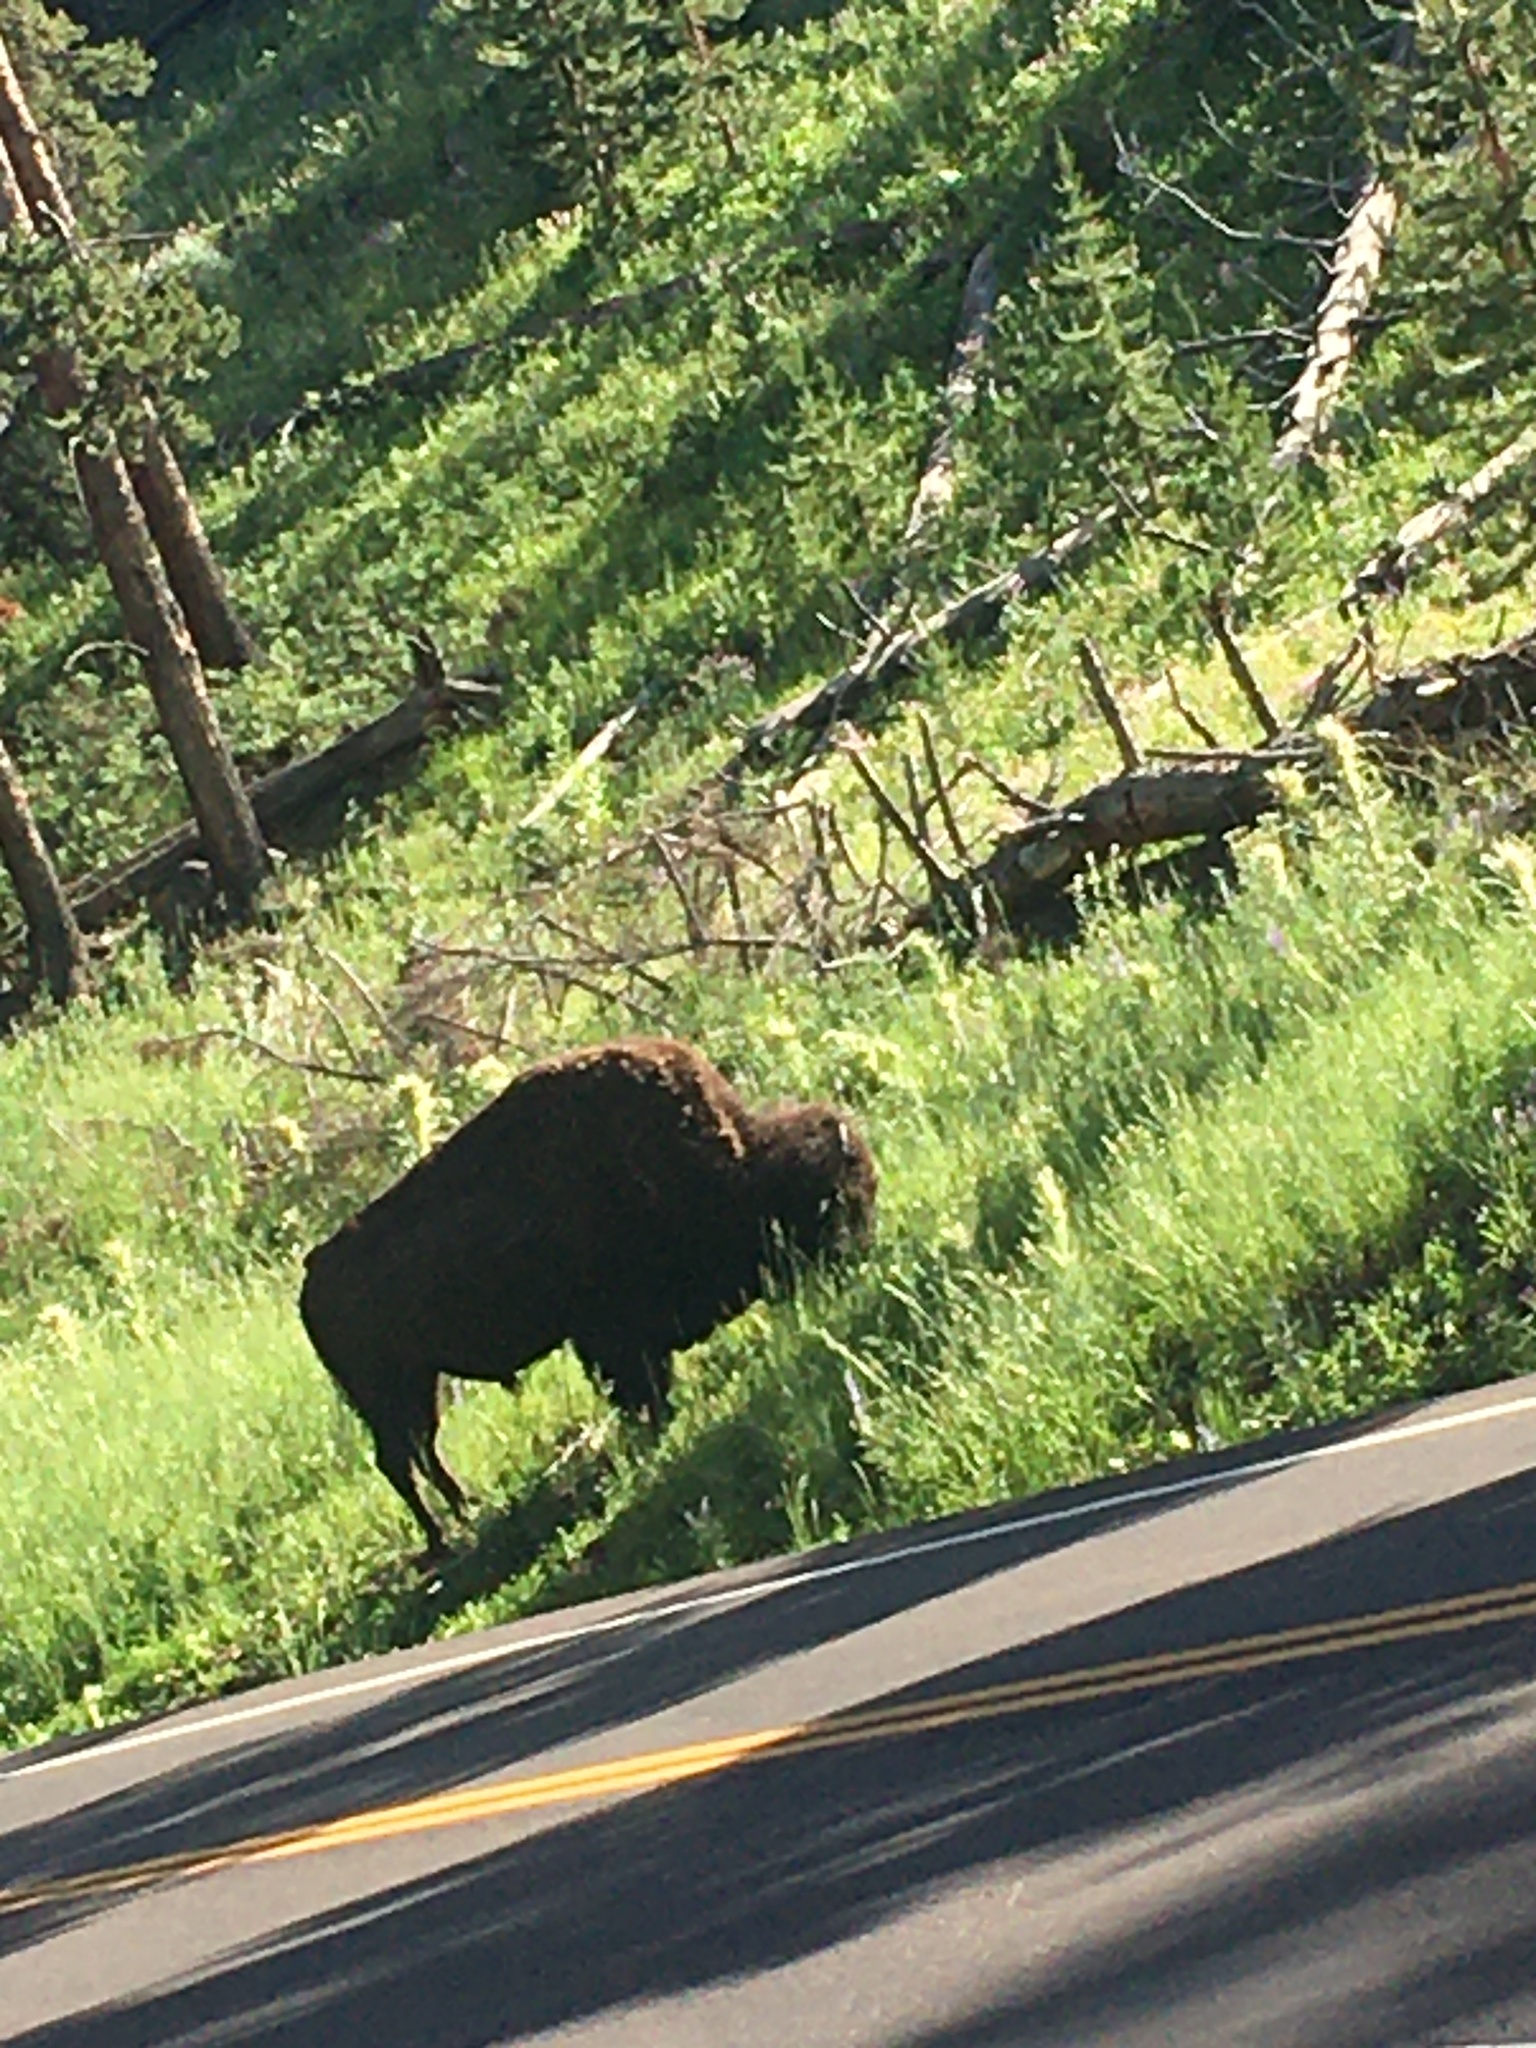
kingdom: Animalia
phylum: Chordata
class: Mammalia
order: Artiodactyla
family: Bovidae
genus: Bison
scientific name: Bison bison
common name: American bison
